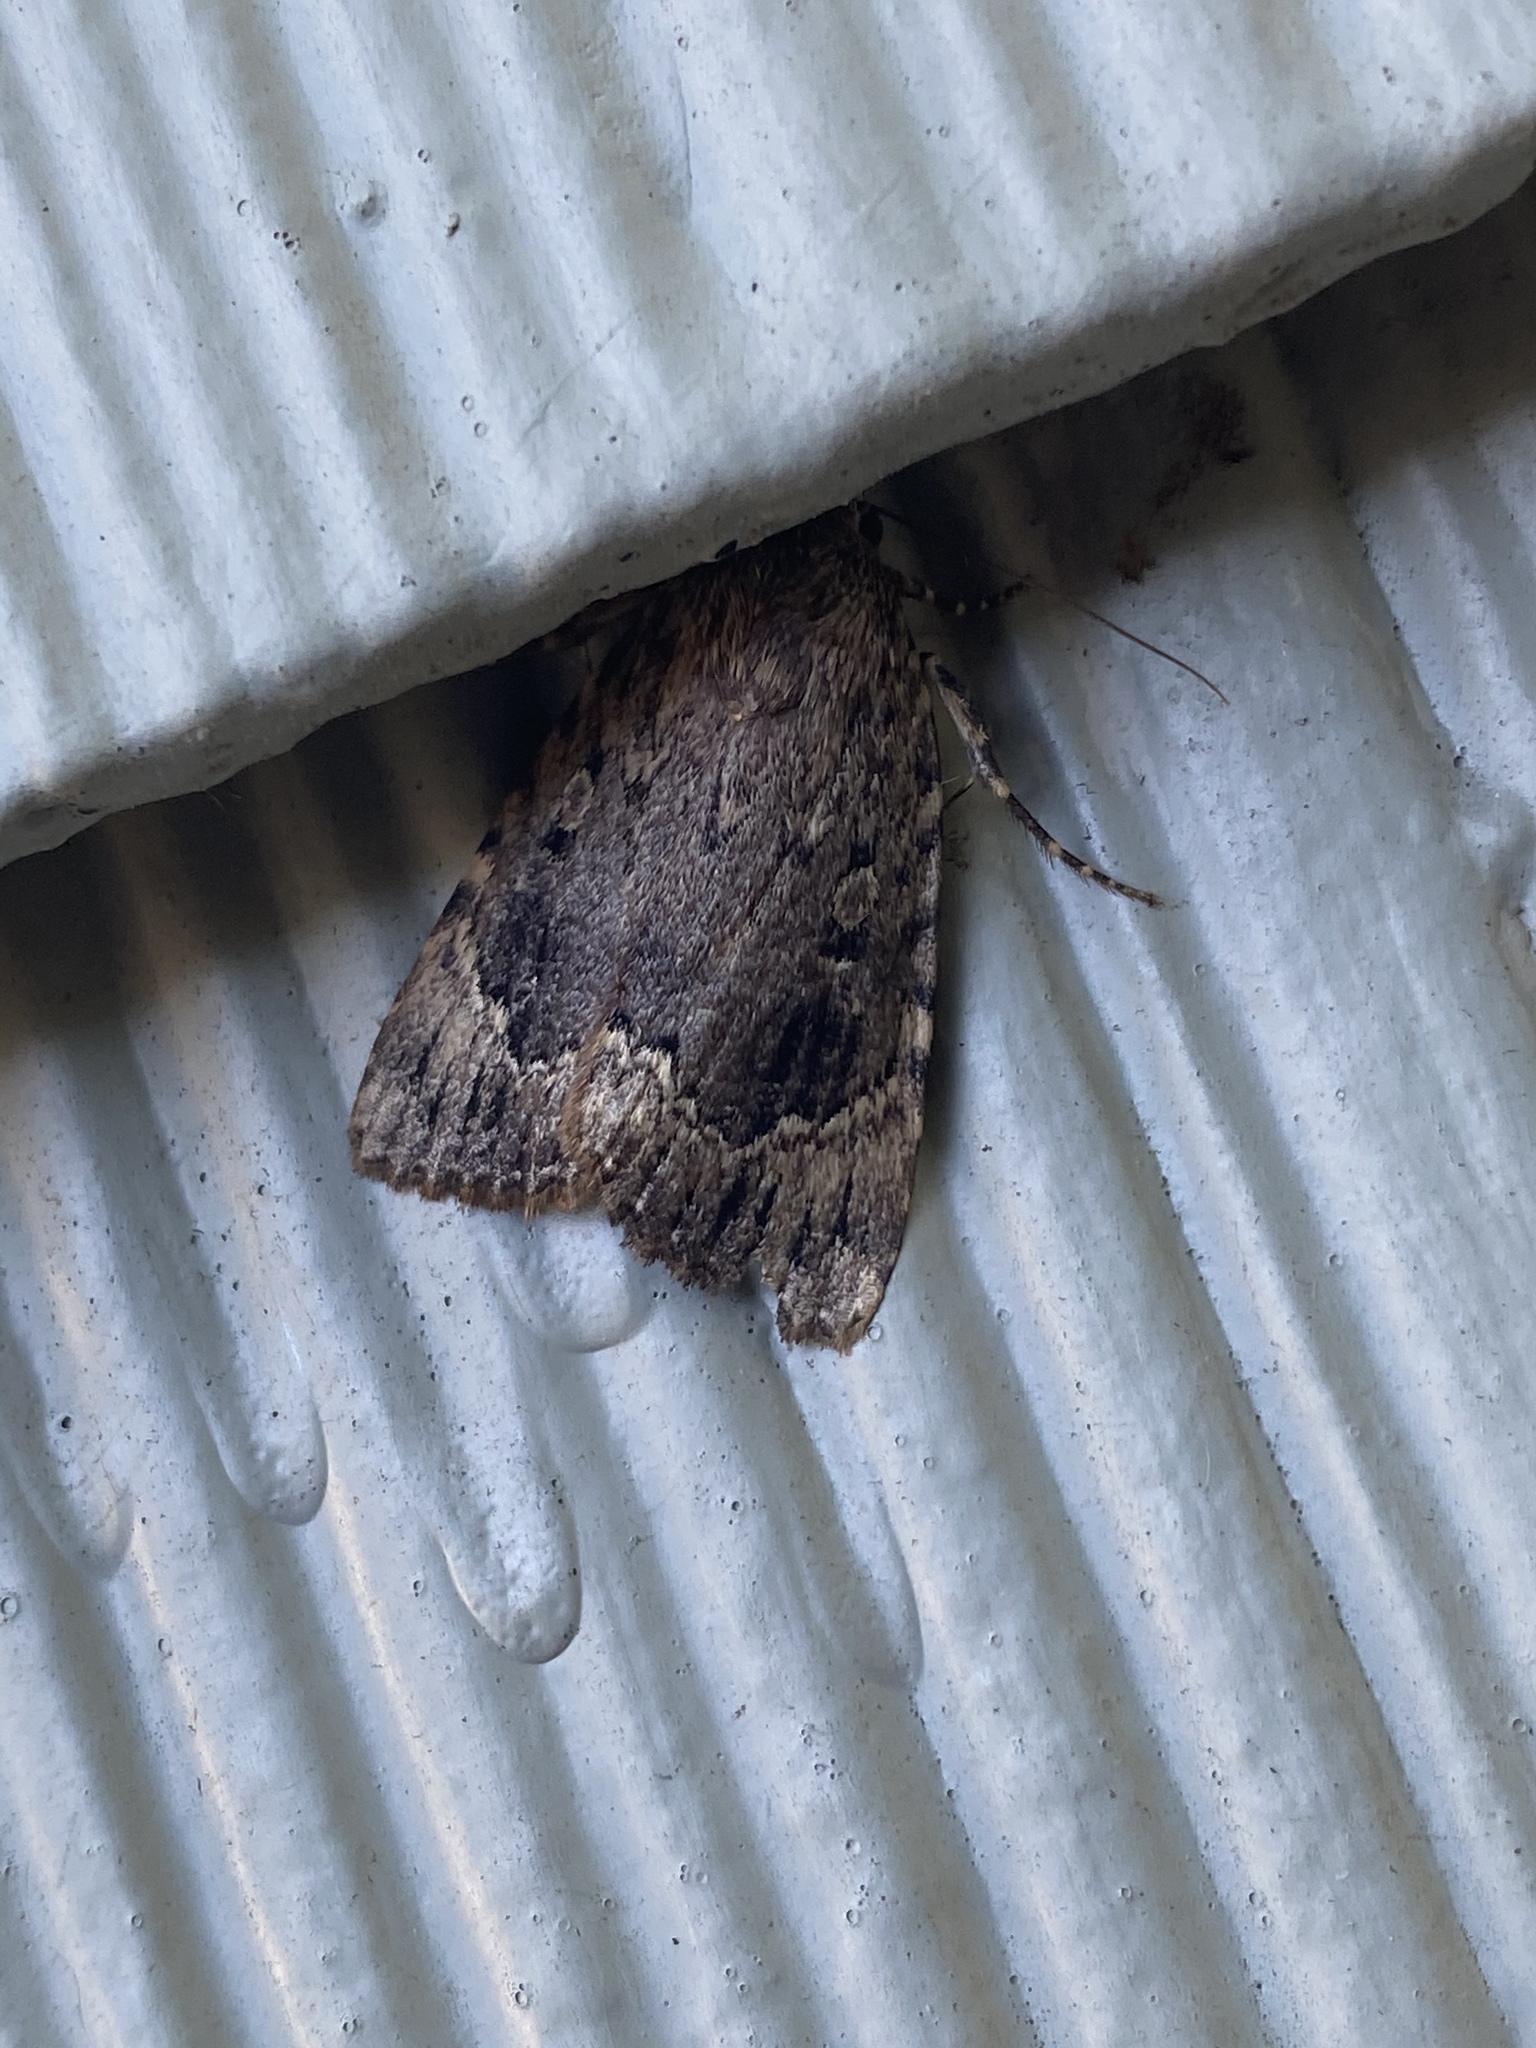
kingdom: Animalia
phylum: Arthropoda
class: Insecta
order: Lepidoptera
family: Noctuidae
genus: Amphipyra
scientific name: Amphipyra pyramidoides
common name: American copper underwing
